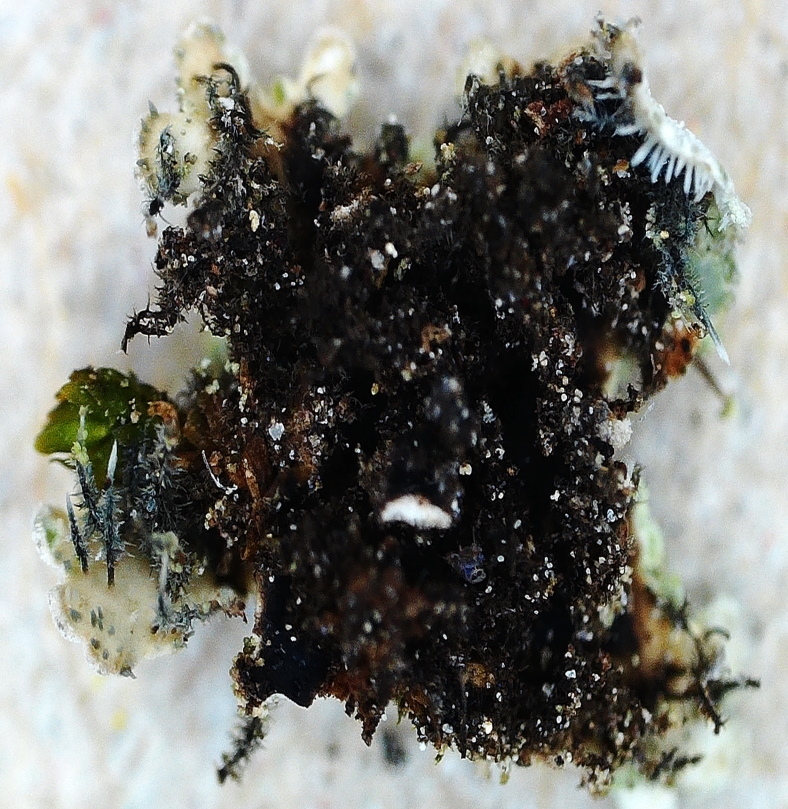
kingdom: Fungi
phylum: Ascomycota
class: Lecanoromycetes
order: Caliciales
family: Physciaceae
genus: Physconia
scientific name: Physconia enteroxantha
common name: Yellow-edged frost lichen
